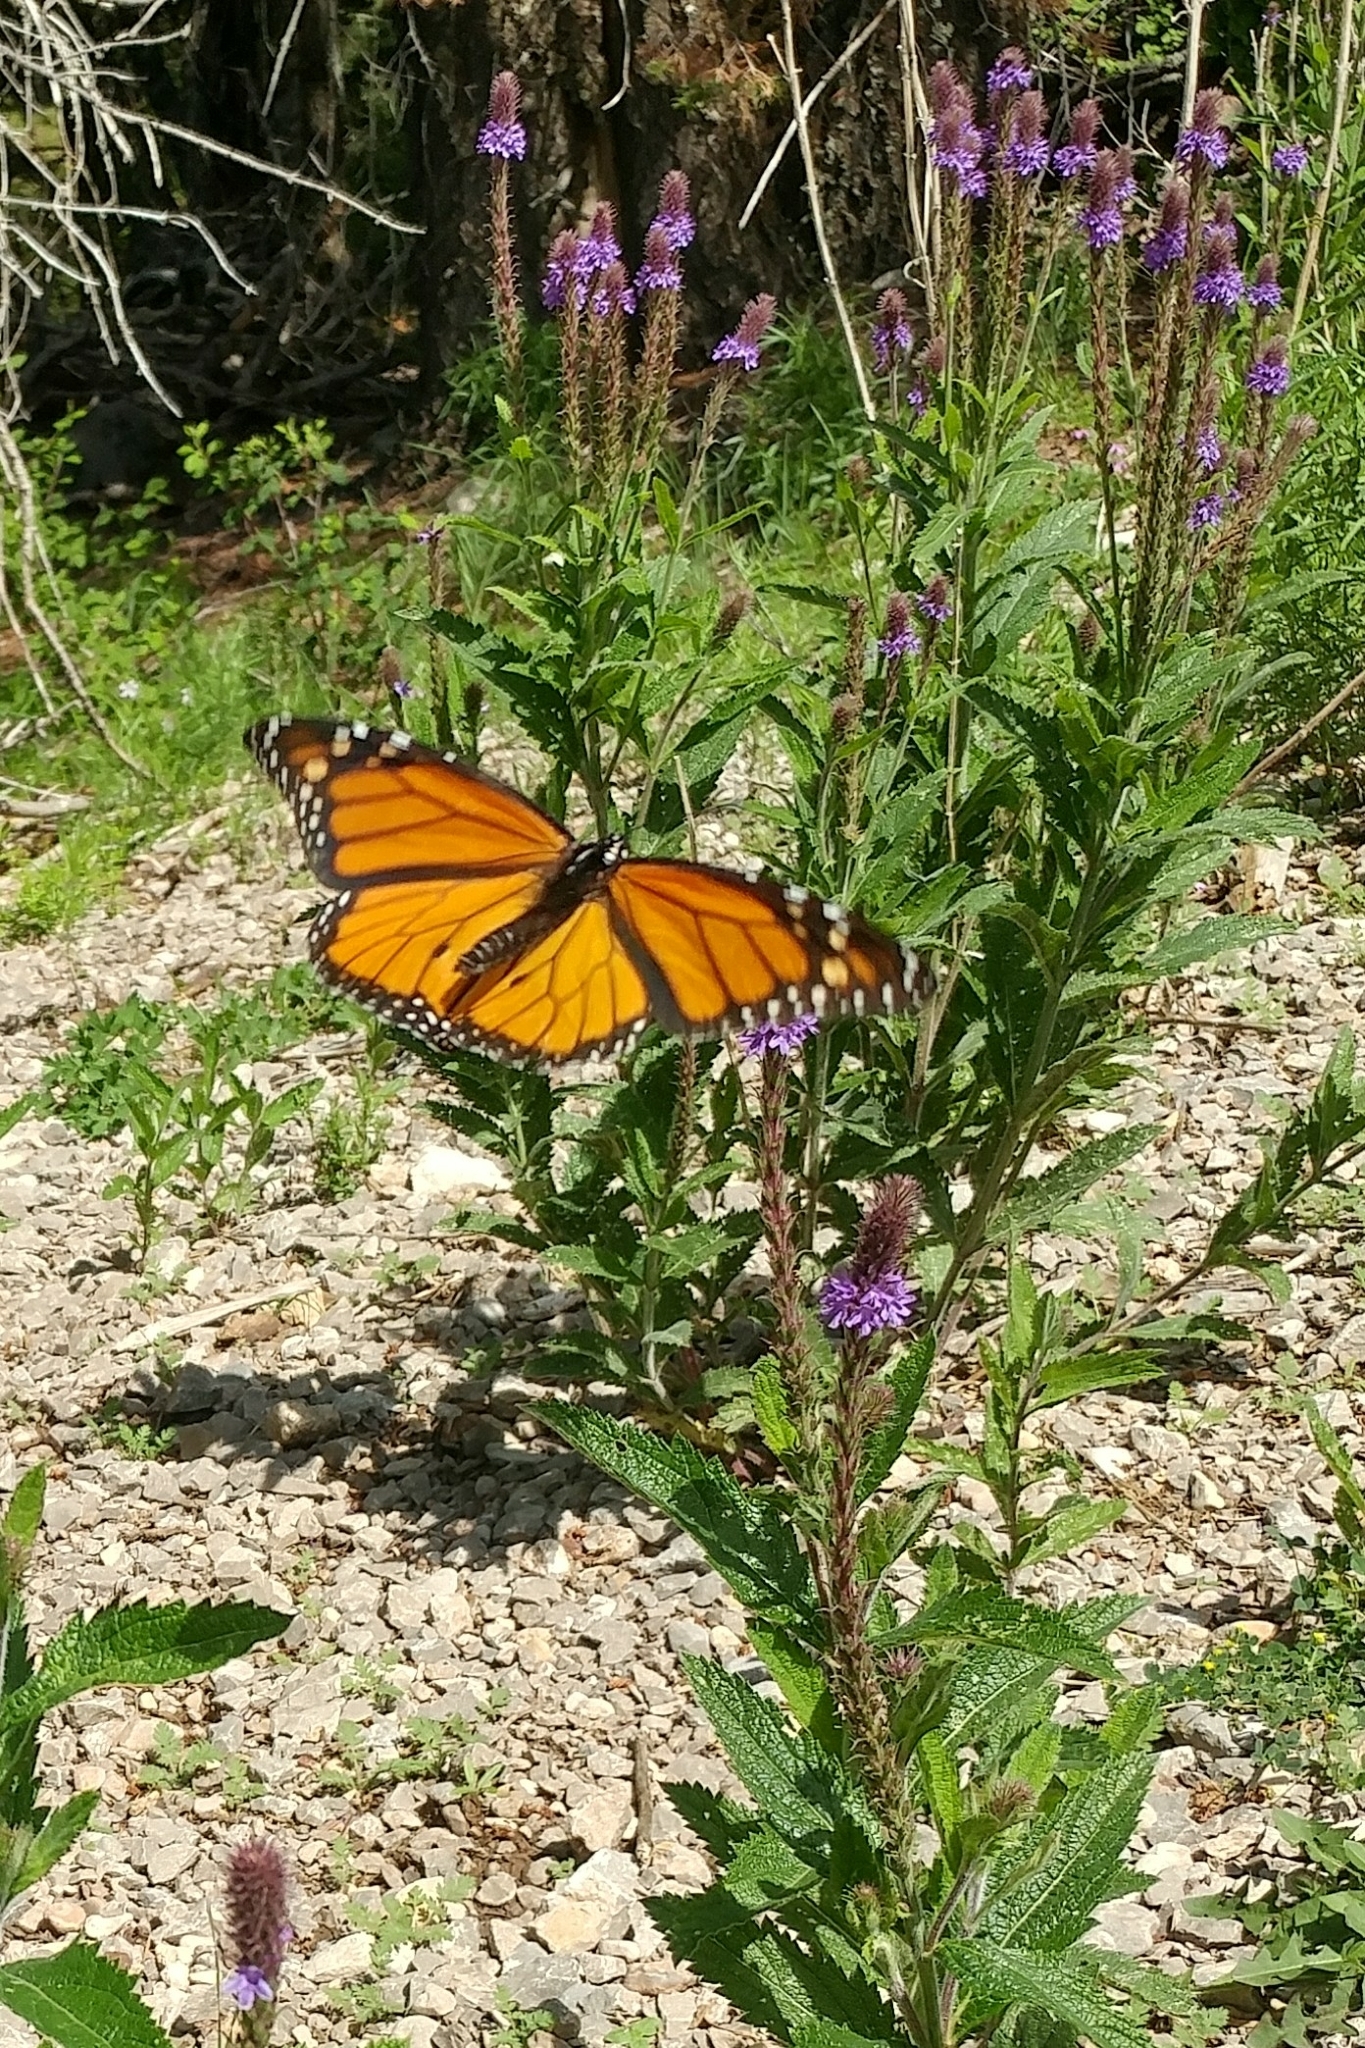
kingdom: Animalia
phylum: Arthropoda
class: Insecta
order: Lepidoptera
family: Nymphalidae
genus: Danaus
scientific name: Danaus plexippus
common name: Monarch
